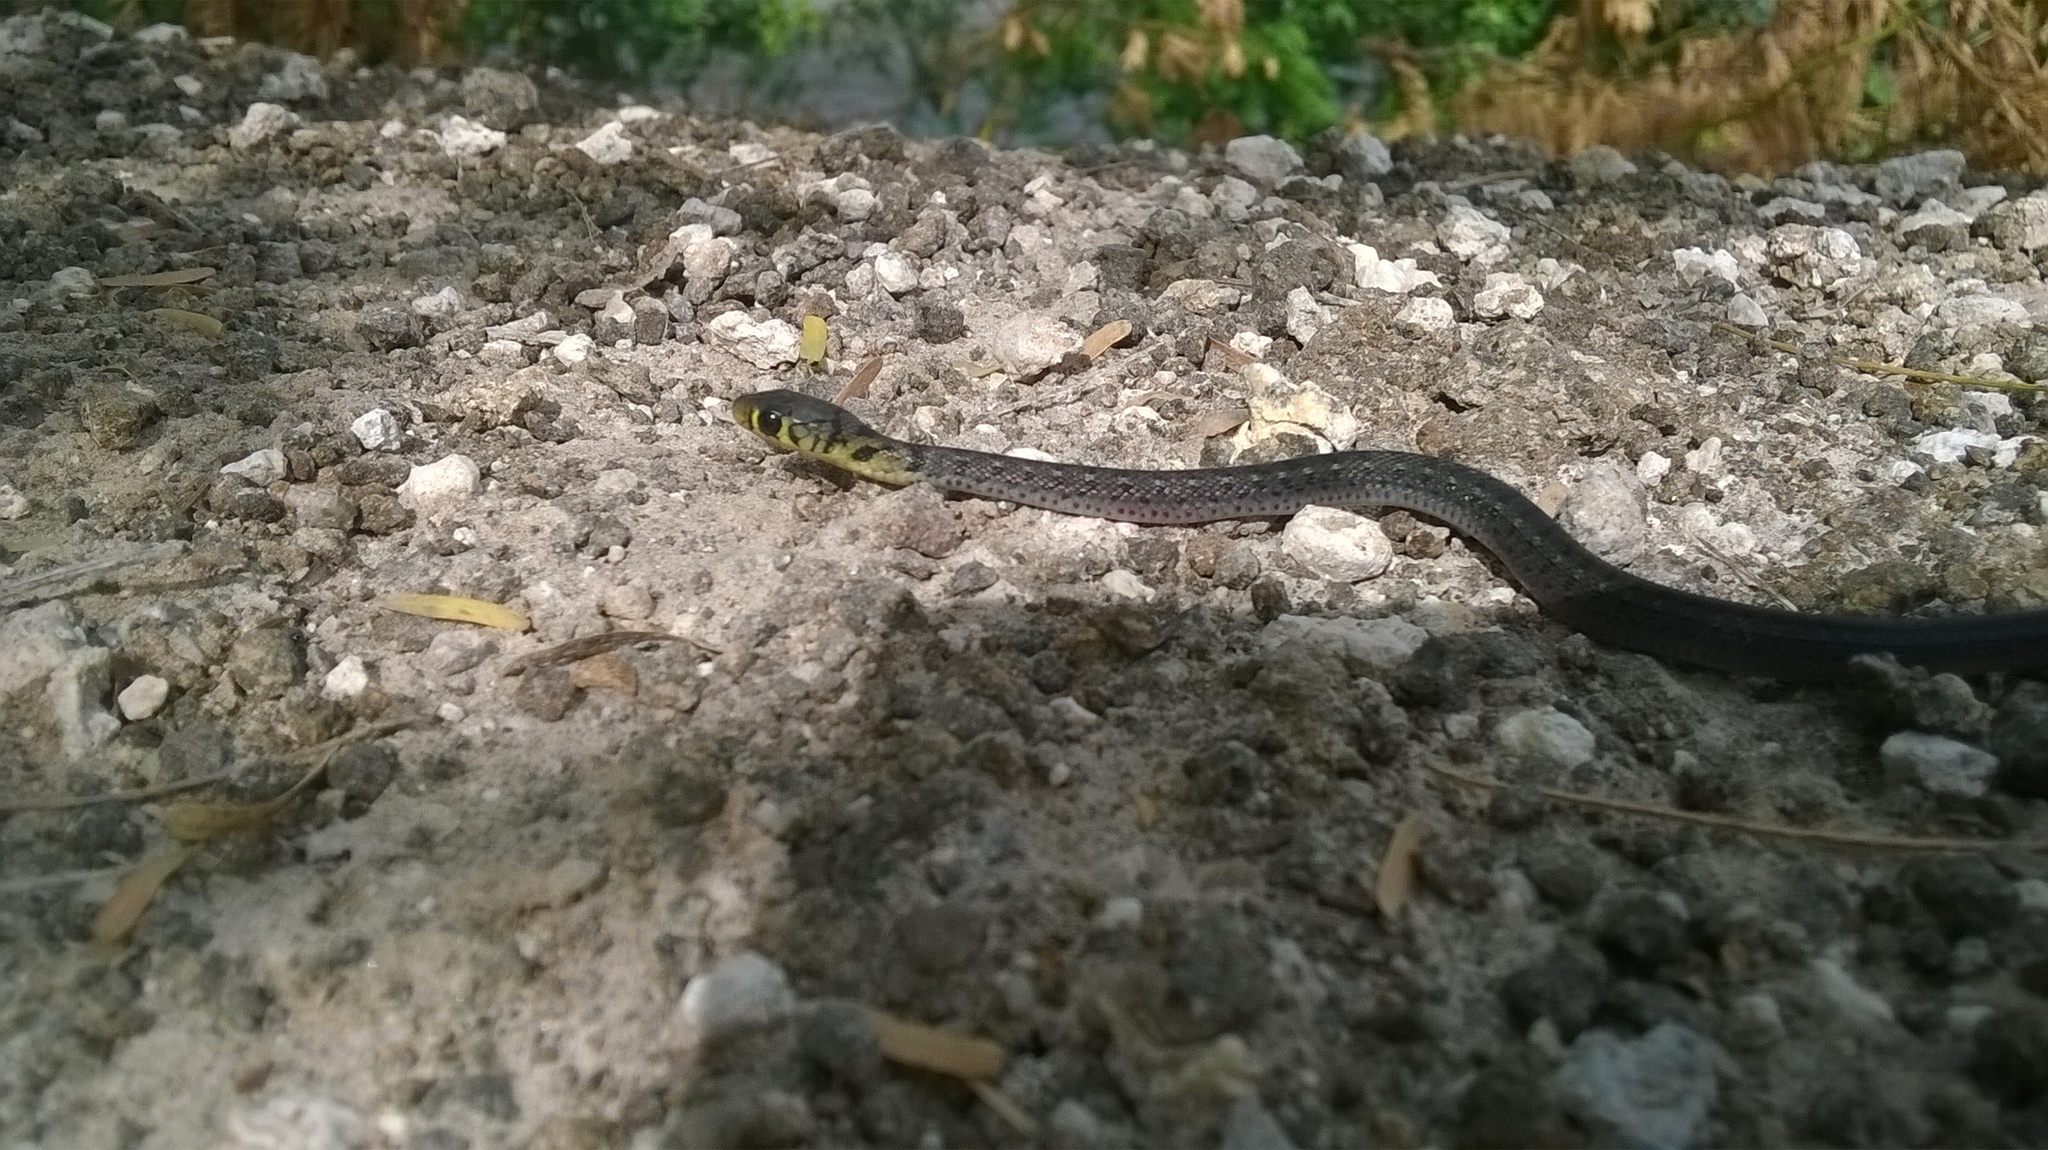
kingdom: Animalia
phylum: Chordata
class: Squamata
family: Colubridae
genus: Amphiesma
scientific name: Amphiesma stolatum
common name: Buff striped keelback
